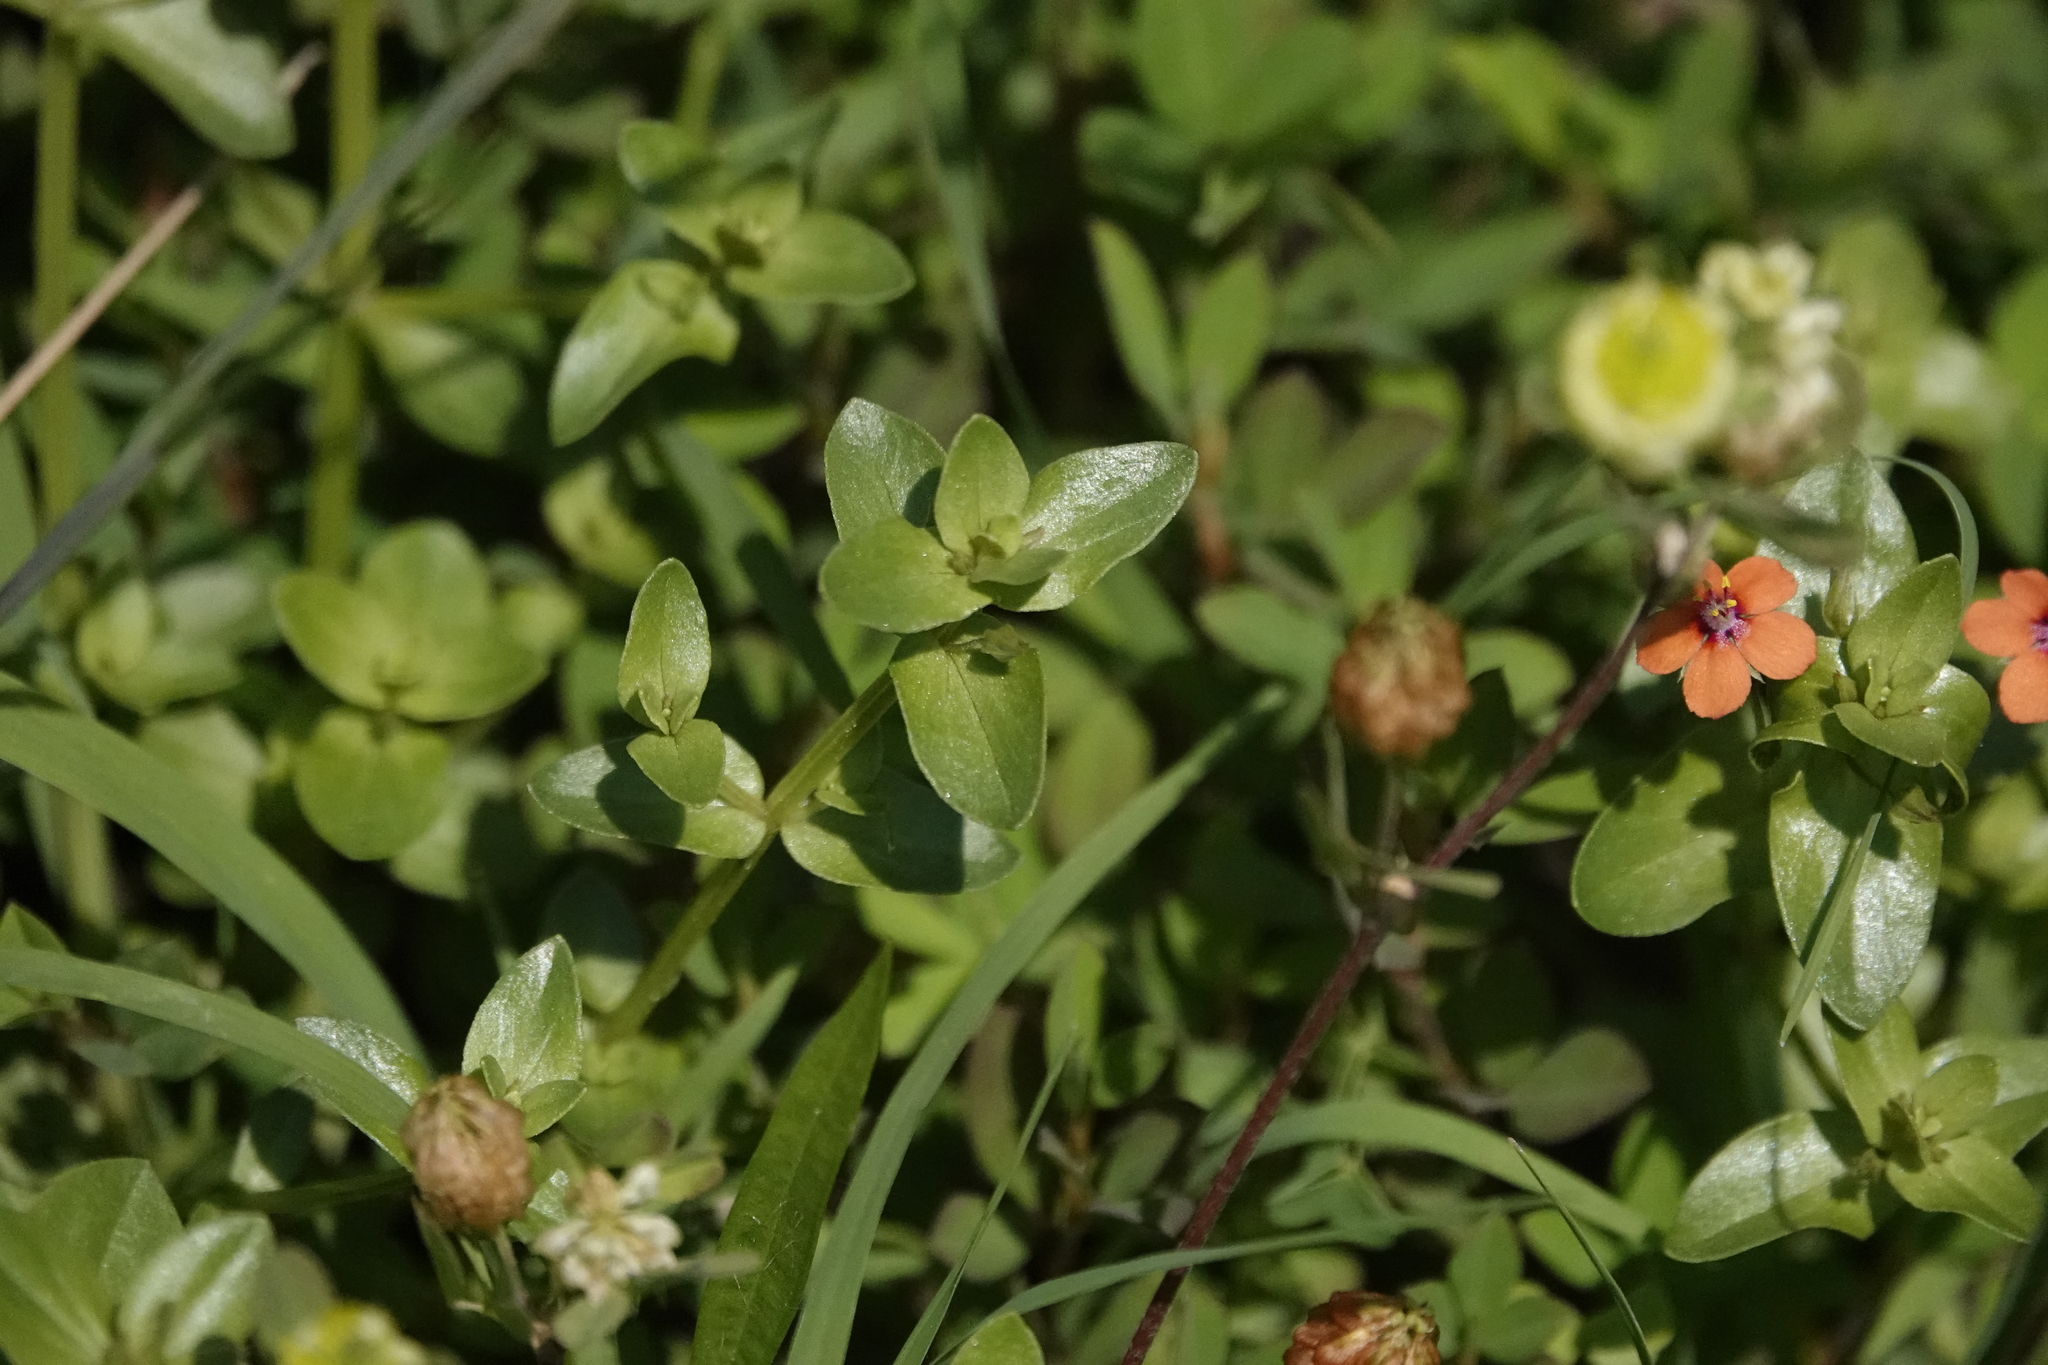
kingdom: Plantae
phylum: Tracheophyta
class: Magnoliopsida
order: Ericales
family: Primulaceae
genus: Lysimachia
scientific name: Lysimachia arvensis
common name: Scarlet pimpernel
